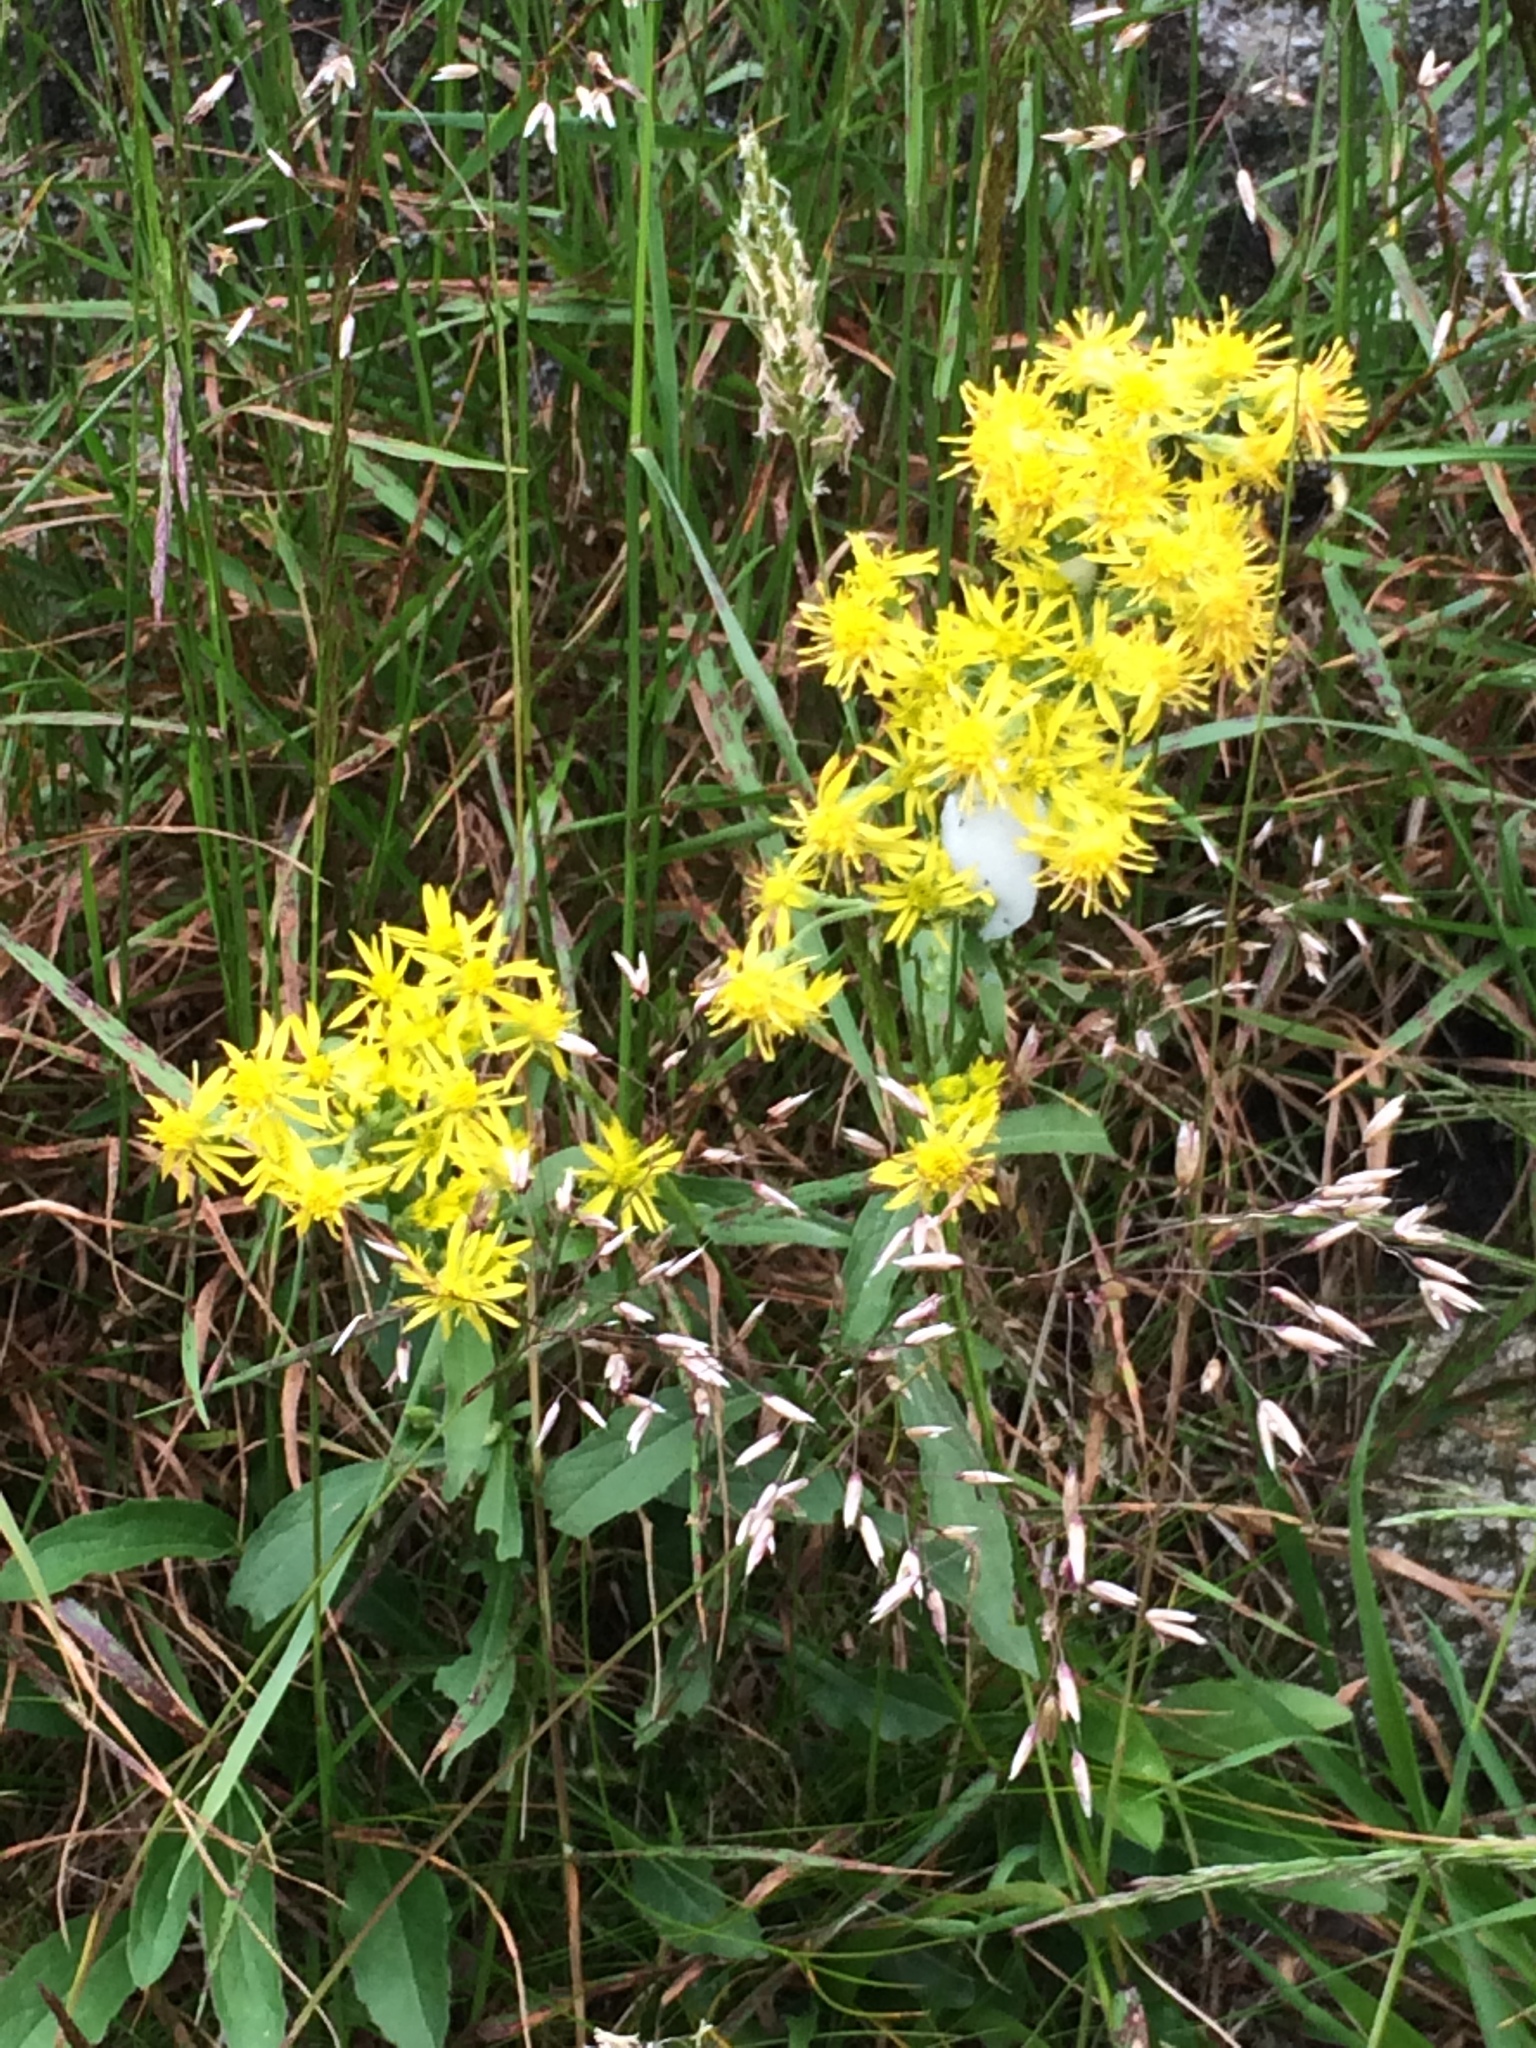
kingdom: Plantae
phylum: Tracheophyta
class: Magnoliopsida
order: Asterales
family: Asteraceae
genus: Solidago
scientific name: Solidago virgaurea
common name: Goldenrod
